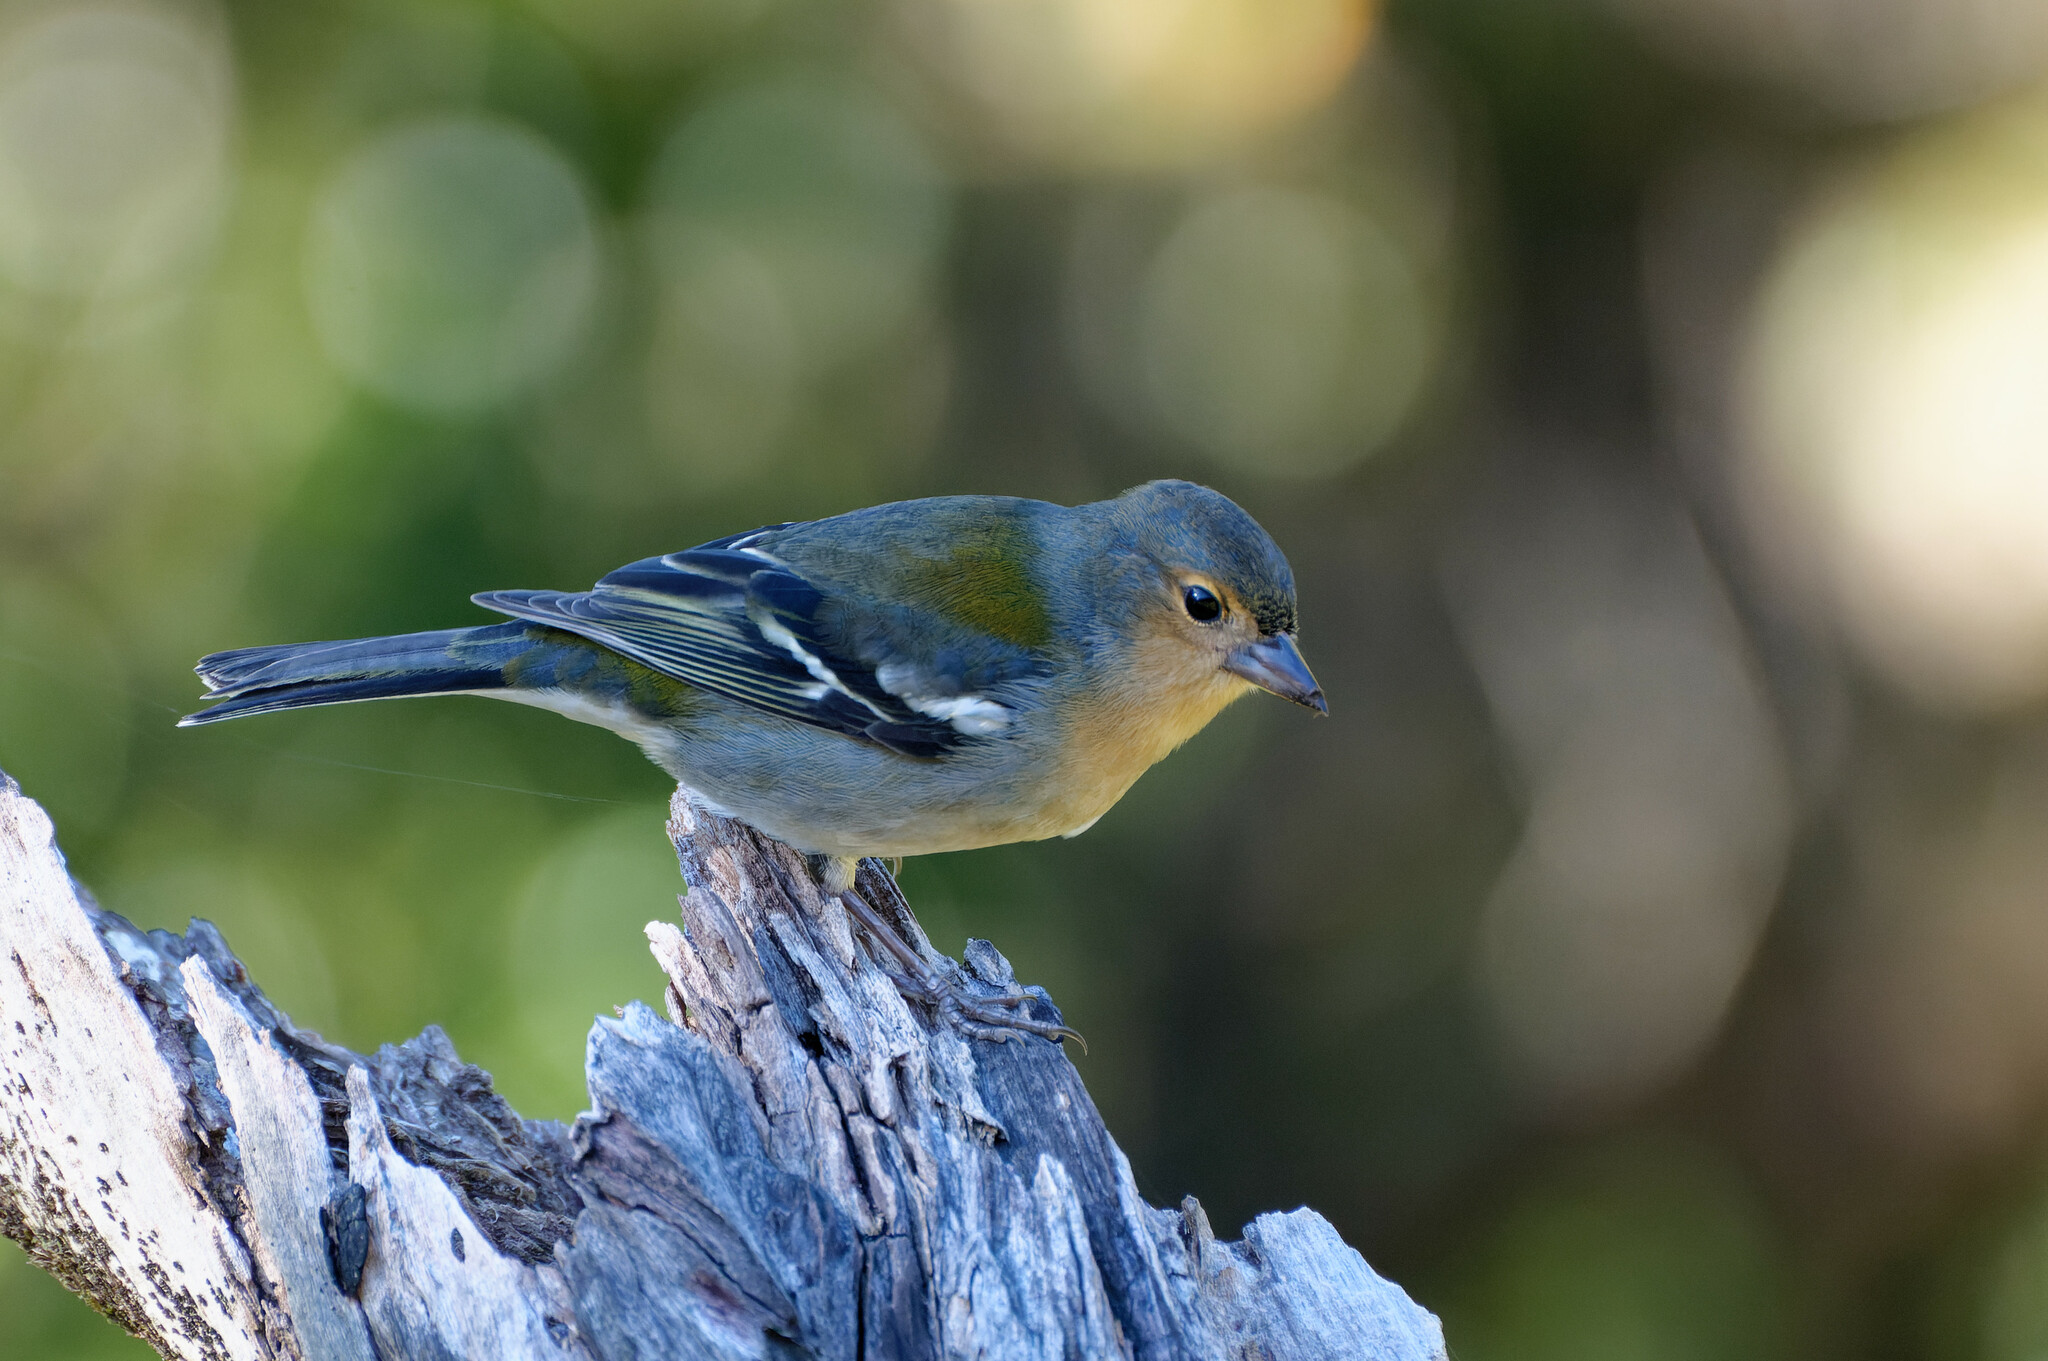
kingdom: Animalia
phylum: Chordata
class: Aves
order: Passeriformes
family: Fringillidae
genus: Fringilla
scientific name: Fringilla maderensis
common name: Madeira chaffinch
